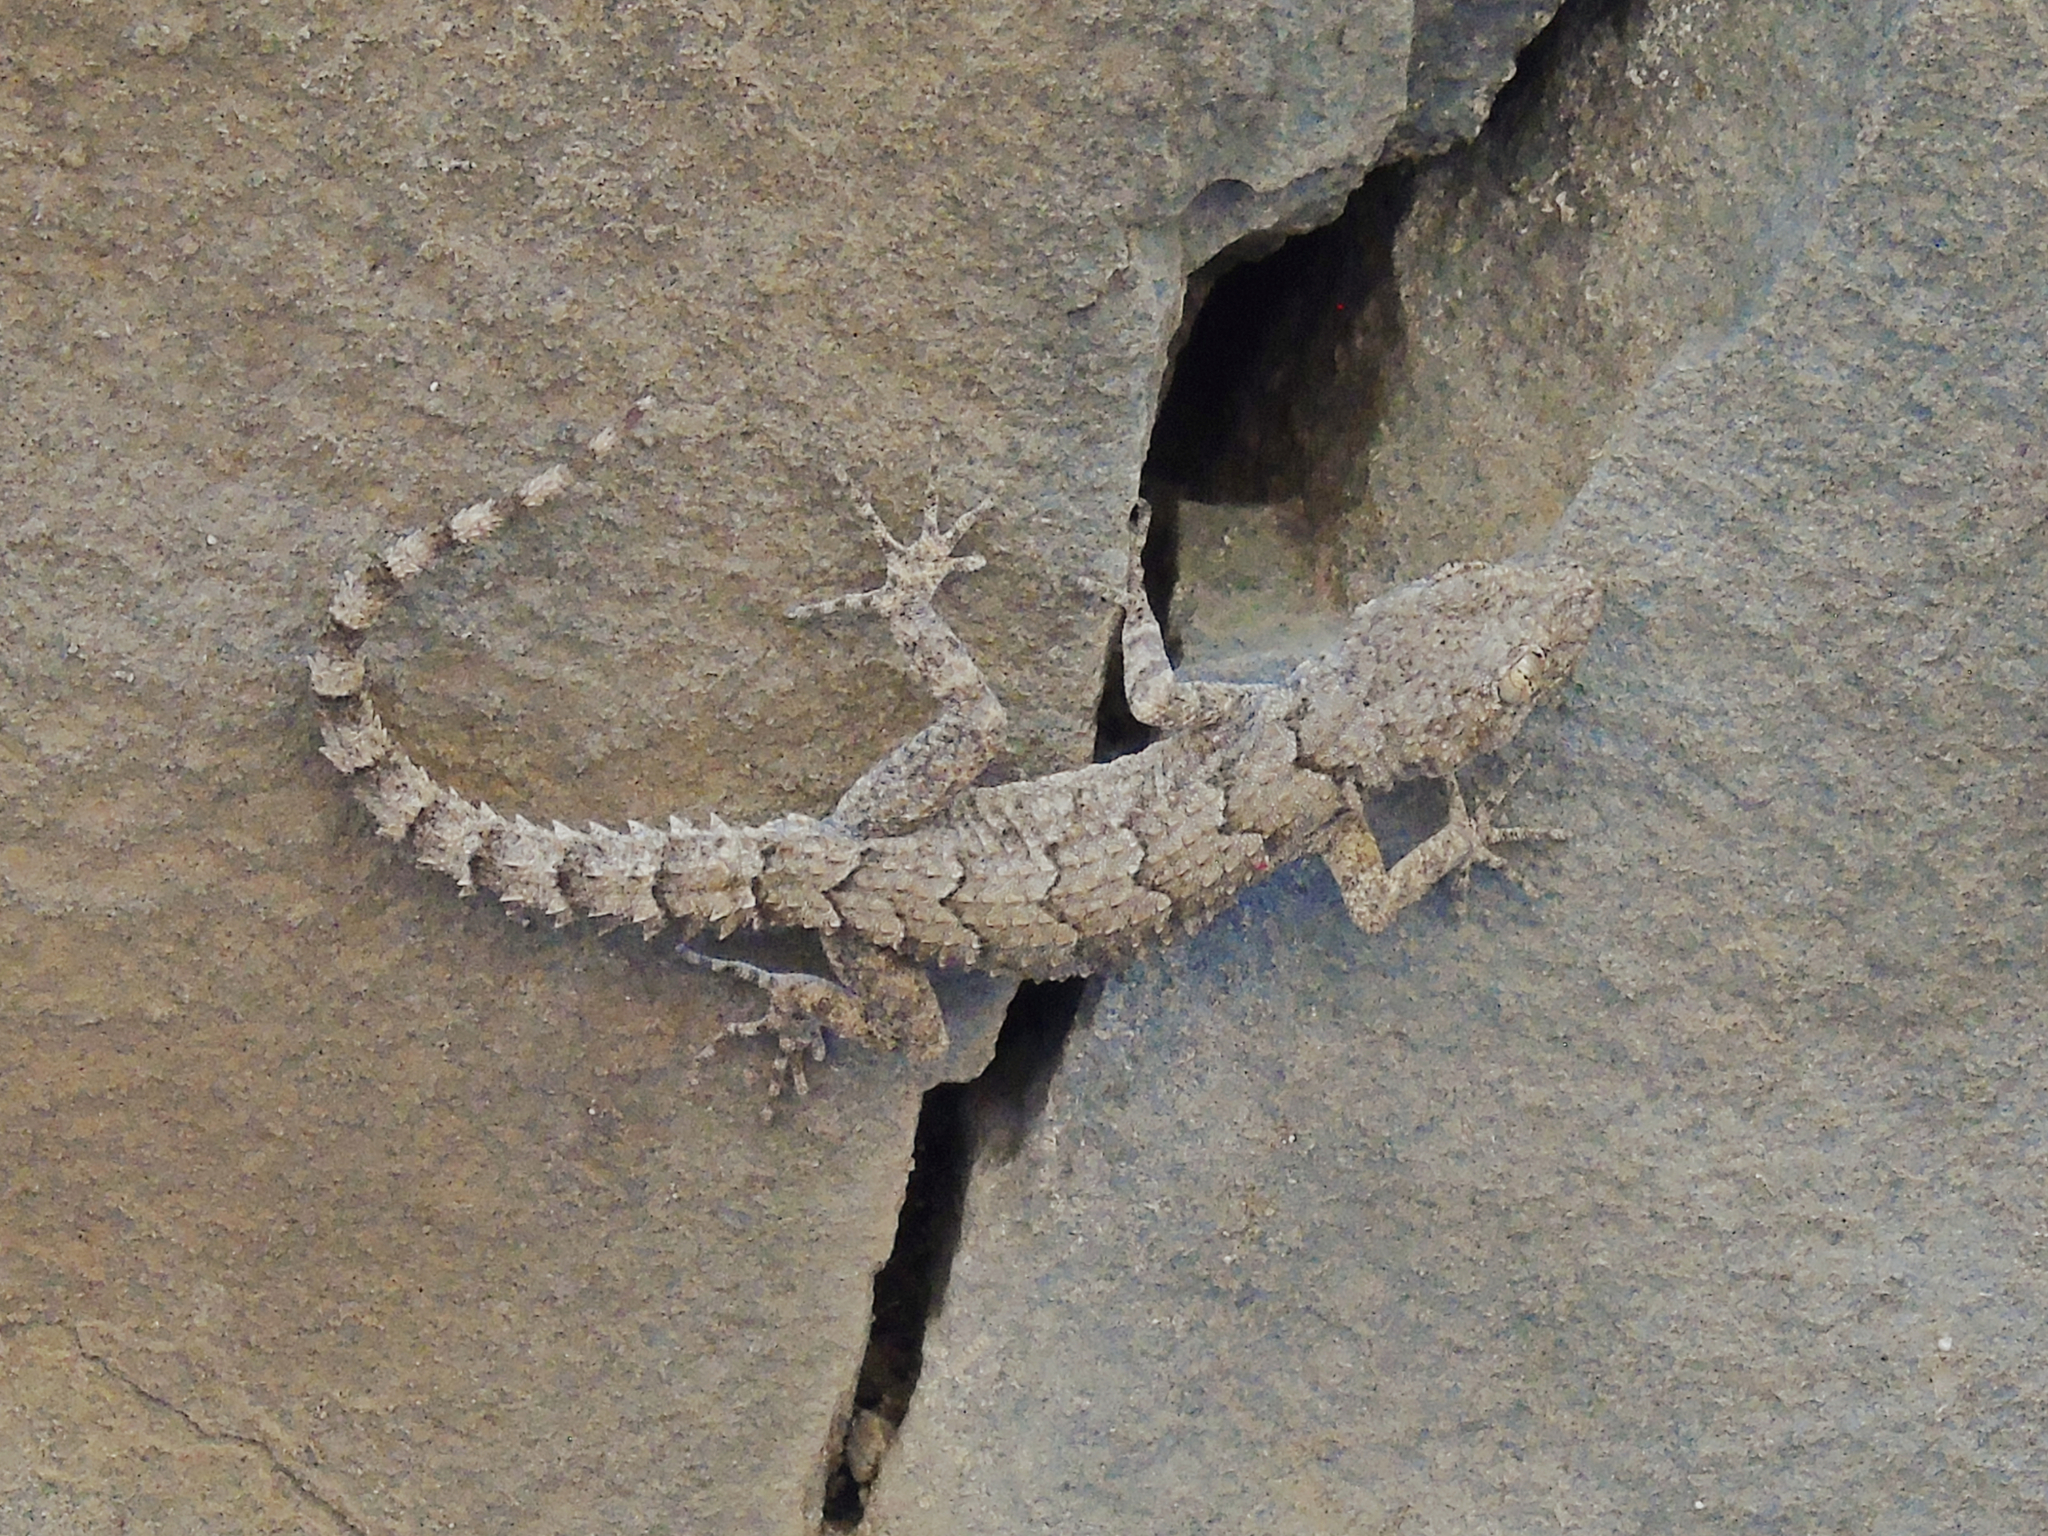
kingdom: Animalia
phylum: Chordata
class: Squamata
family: Gekkonidae
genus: Mediodactylus
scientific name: Mediodactylus heterocercus
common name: Asia minor thin-toed gecko
